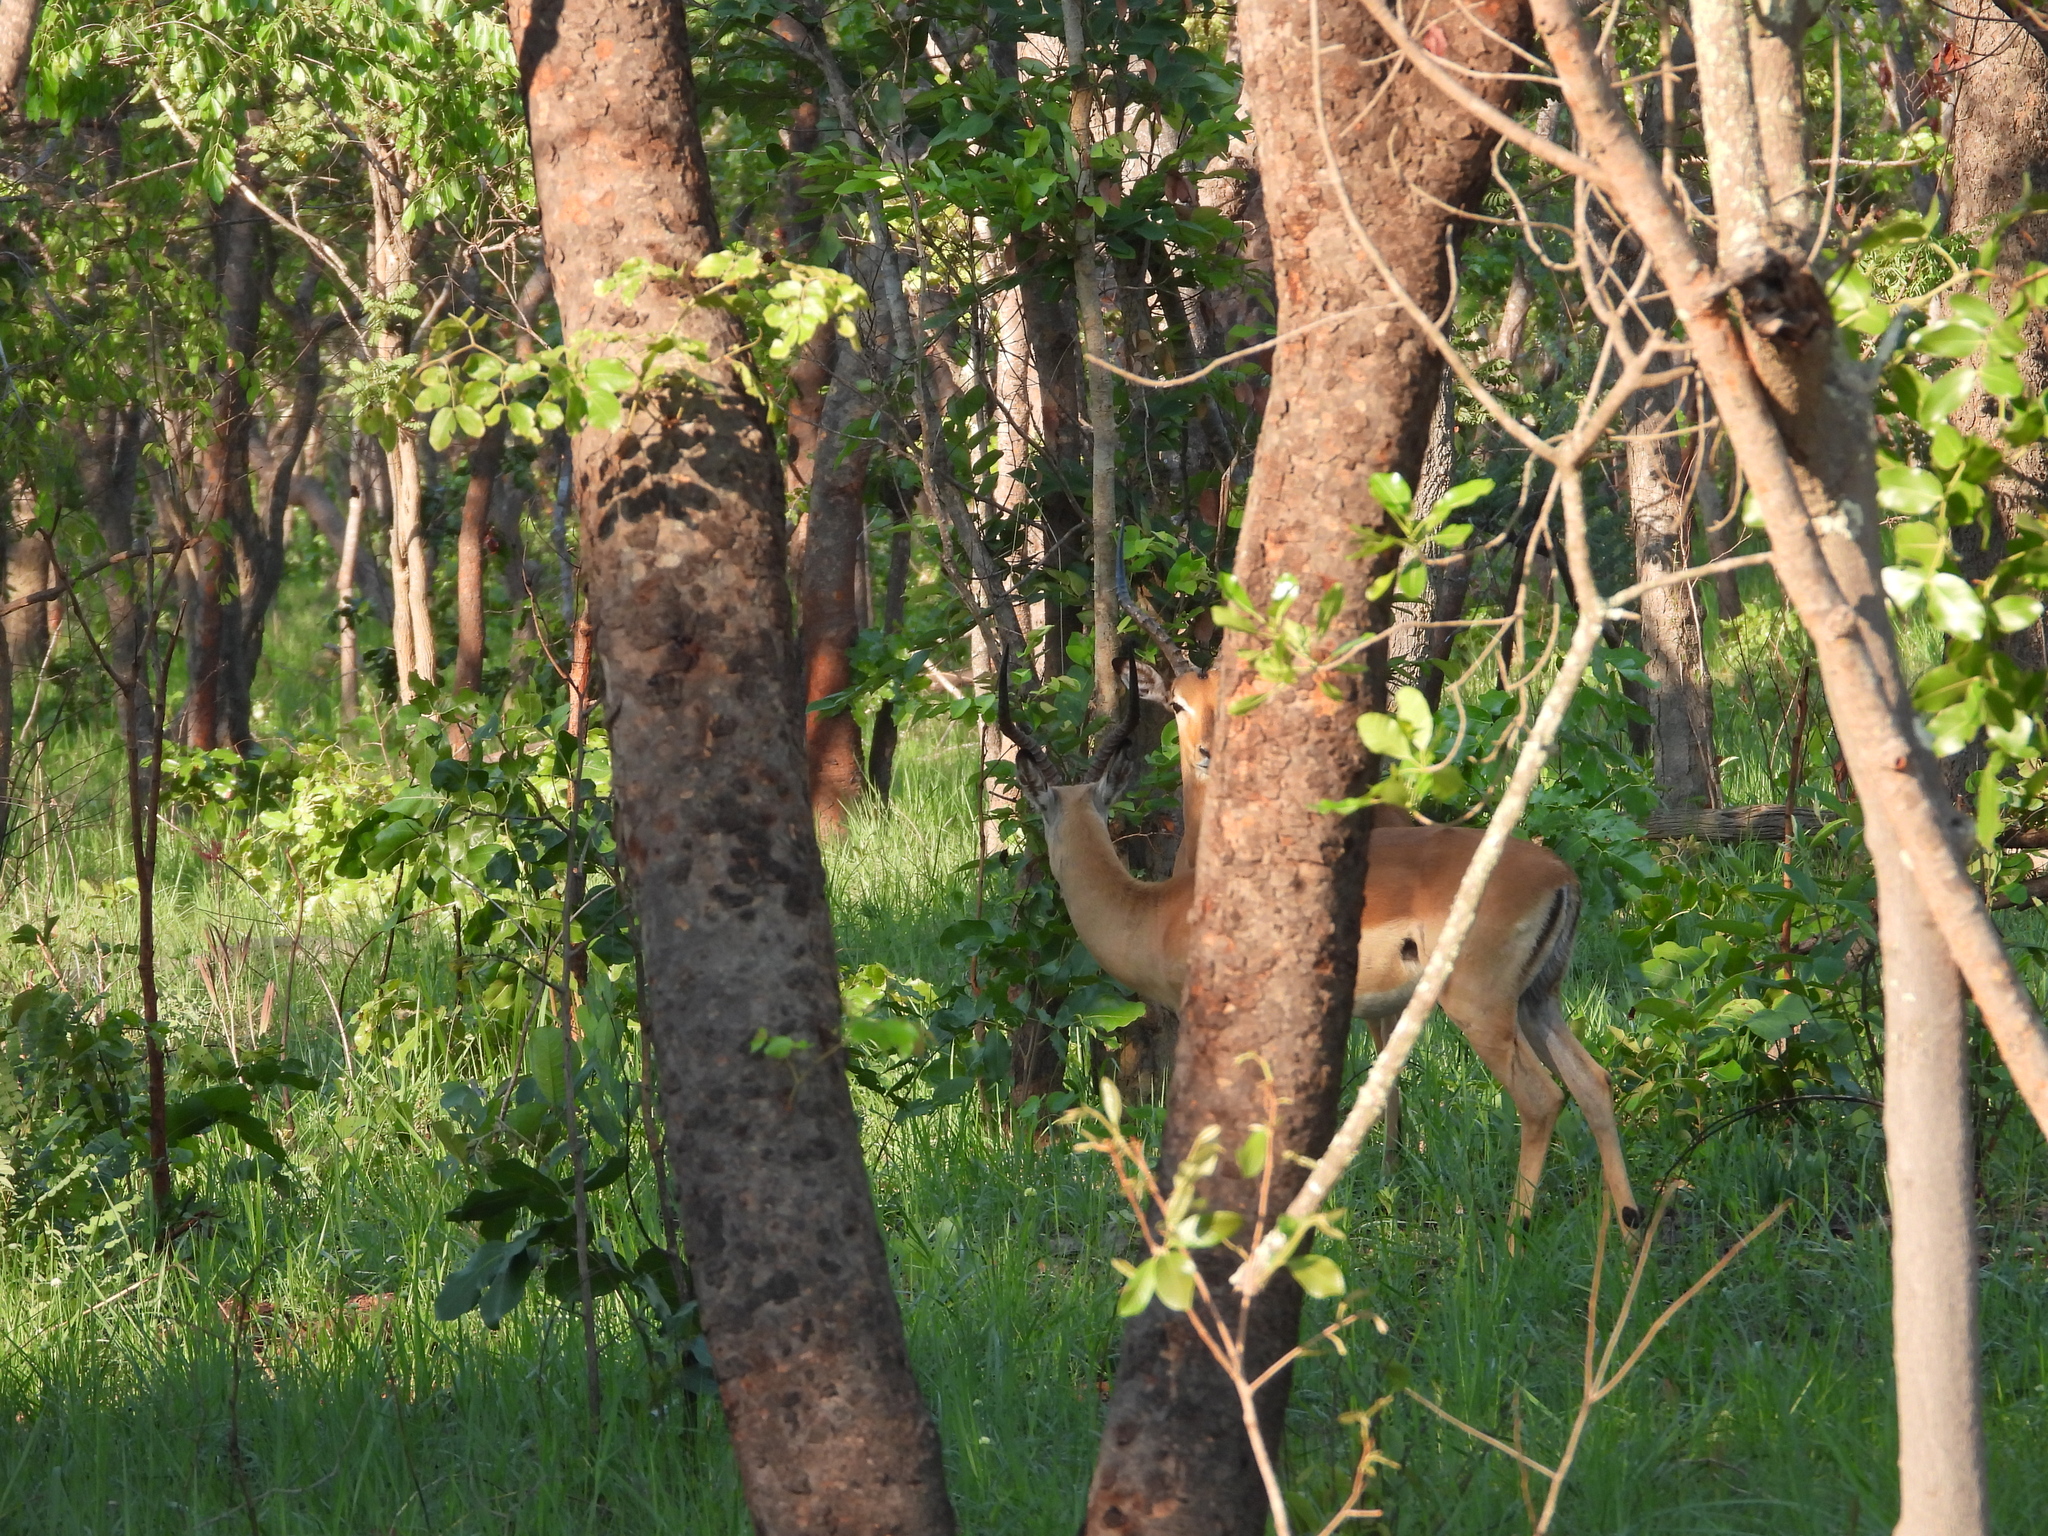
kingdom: Animalia
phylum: Chordata
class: Mammalia
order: Artiodactyla
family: Bovidae
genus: Aepyceros
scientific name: Aepyceros melampus
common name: Impala
